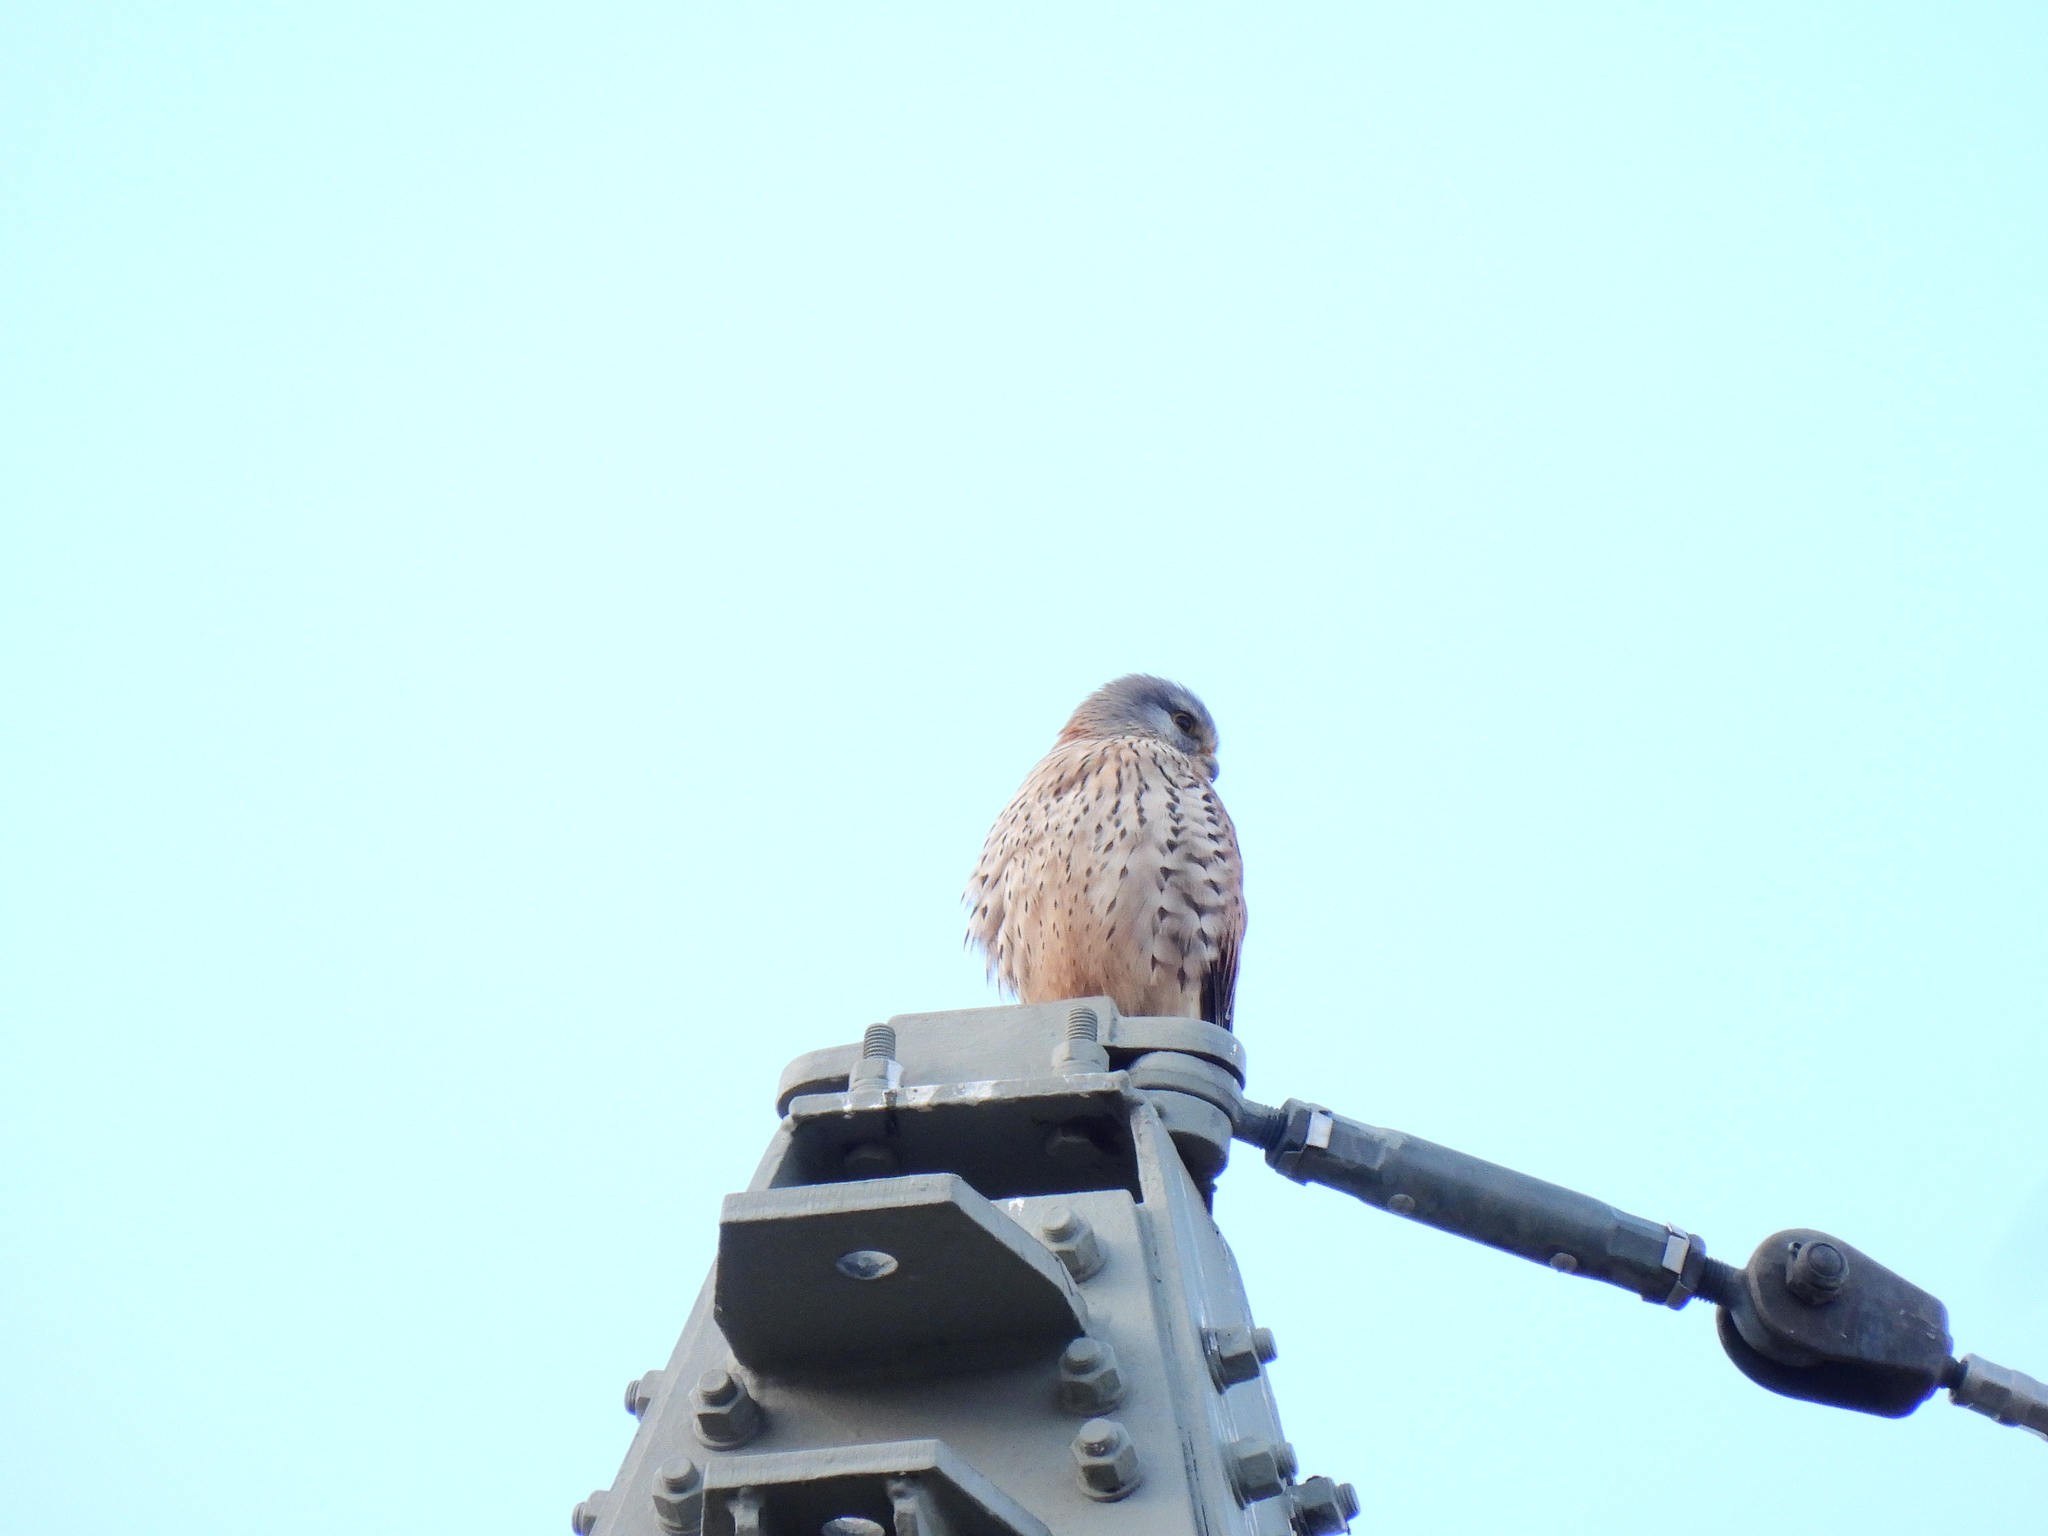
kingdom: Animalia
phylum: Chordata
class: Aves
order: Falconiformes
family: Falconidae
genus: Falco
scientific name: Falco tinnunculus
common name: Common kestrel
